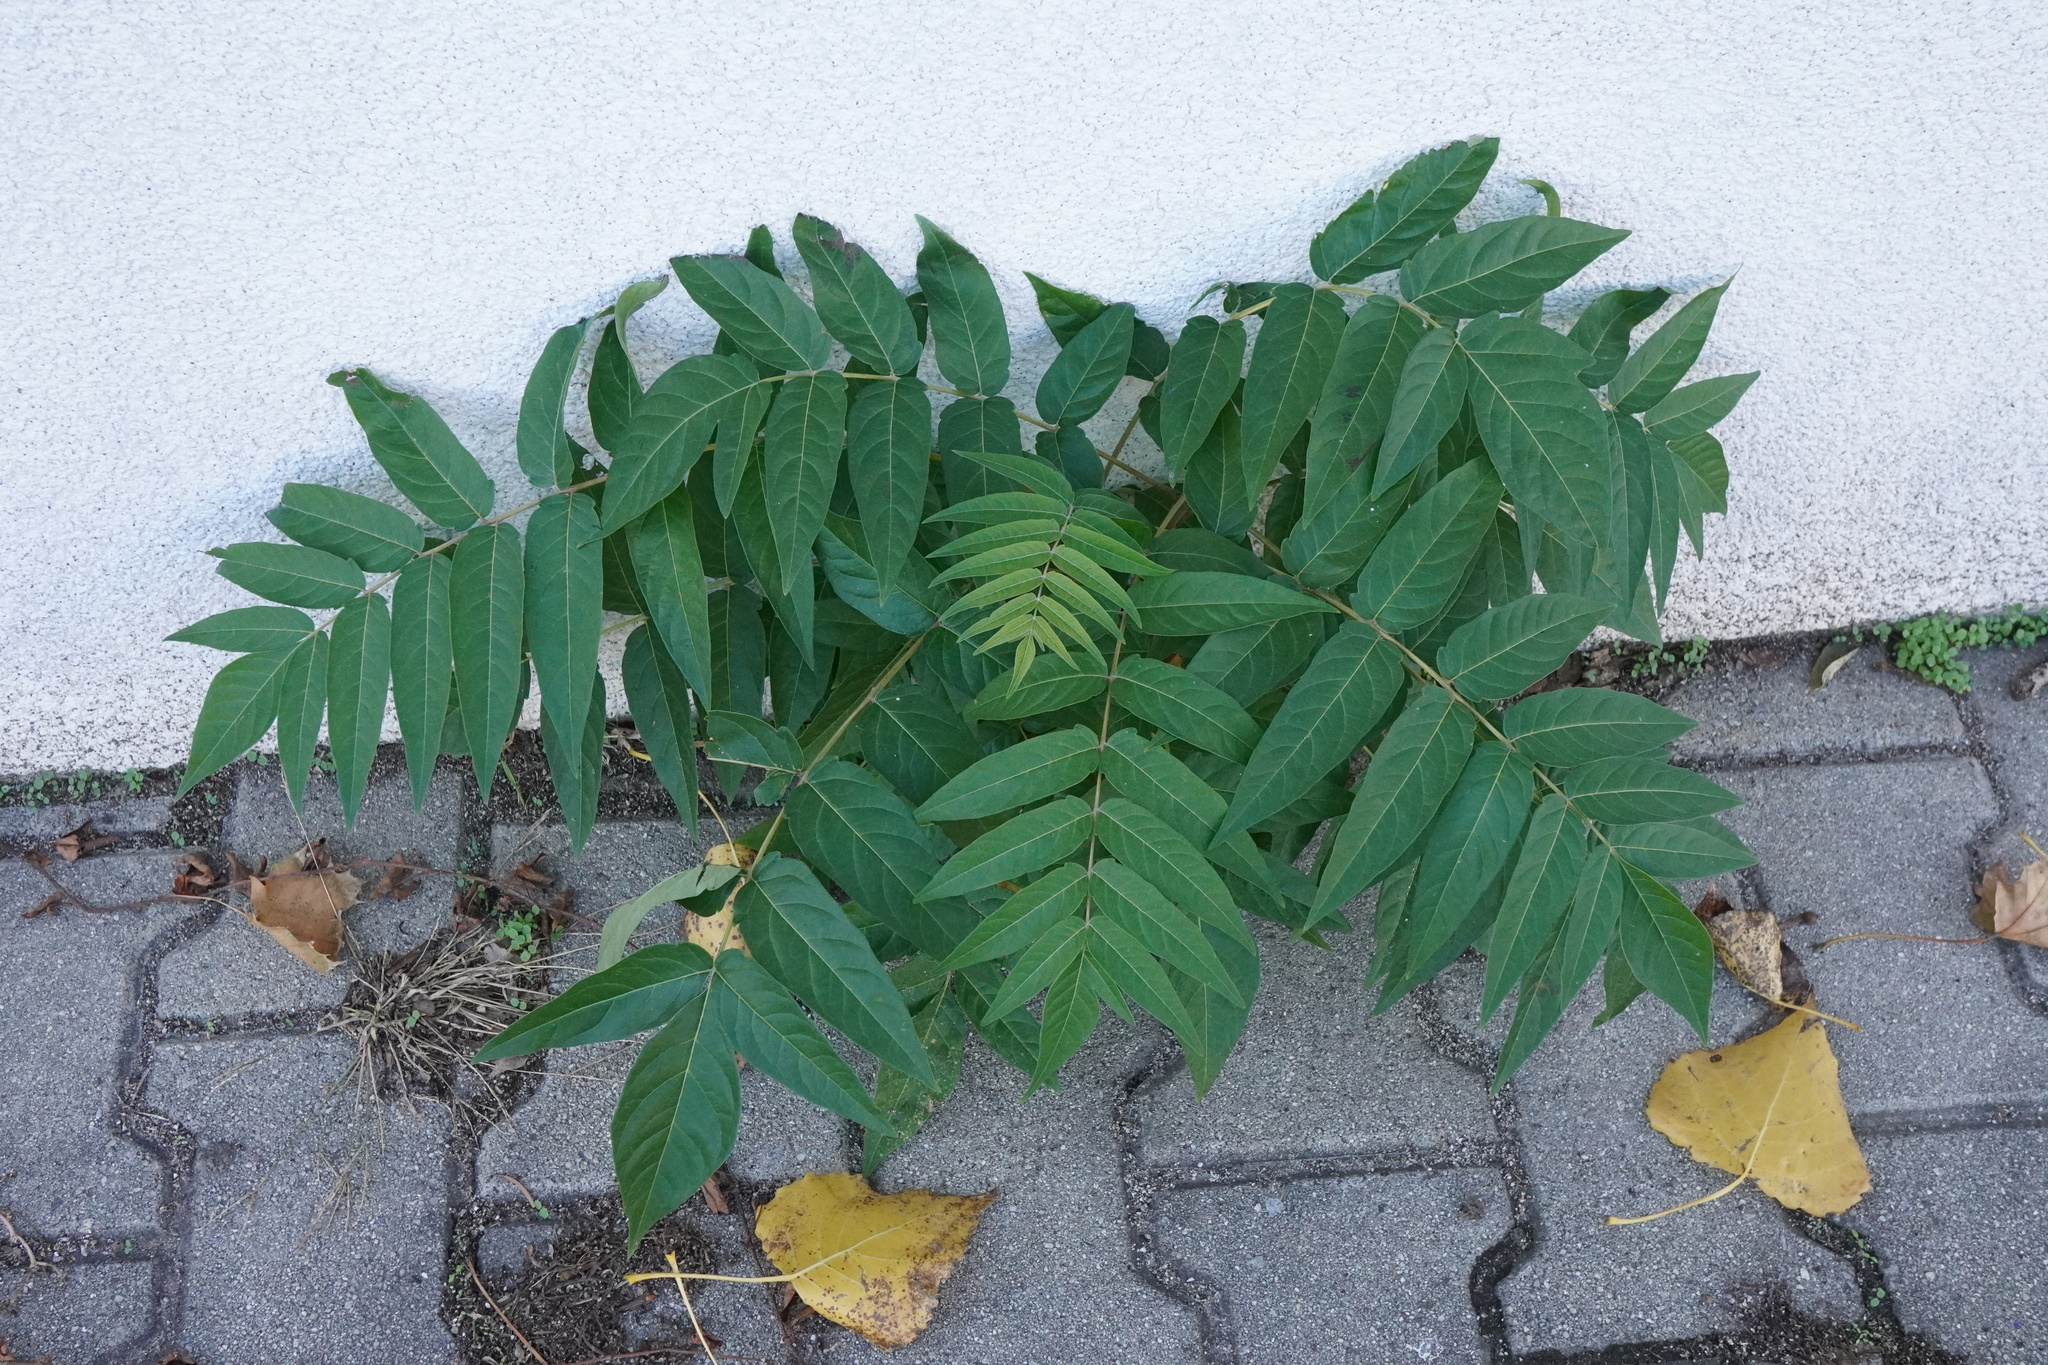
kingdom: Plantae
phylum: Tracheophyta
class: Magnoliopsida
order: Sapindales
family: Simaroubaceae
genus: Ailanthus
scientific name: Ailanthus altissima
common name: Tree-of-heaven
